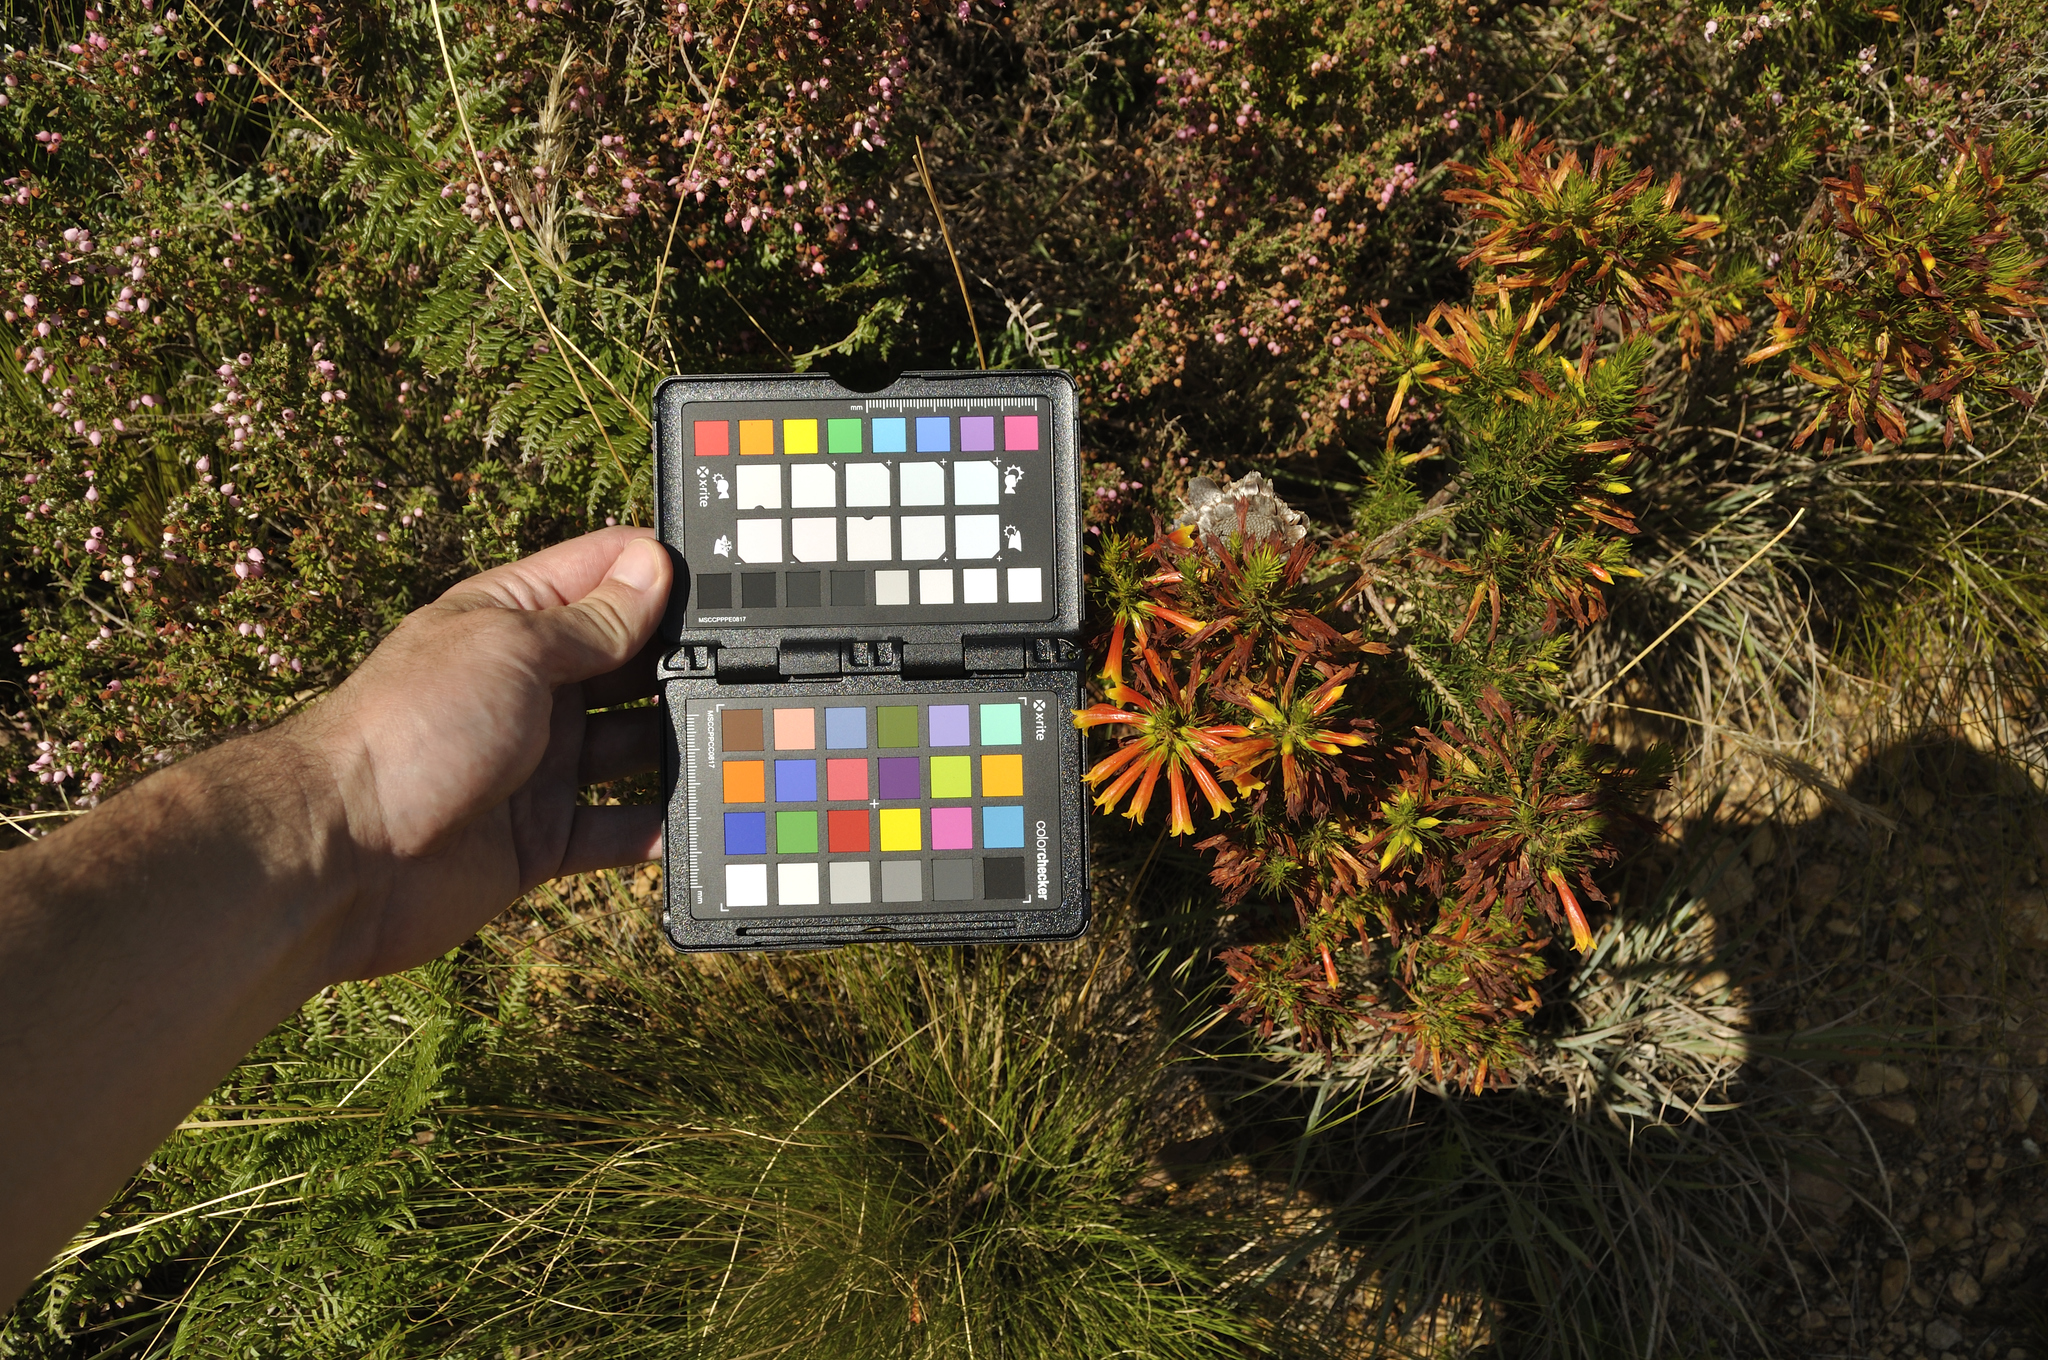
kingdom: Plantae
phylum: Tracheophyta
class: Magnoliopsida
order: Ericales
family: Ericaceae
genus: Erica
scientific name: Erica grandiflora
